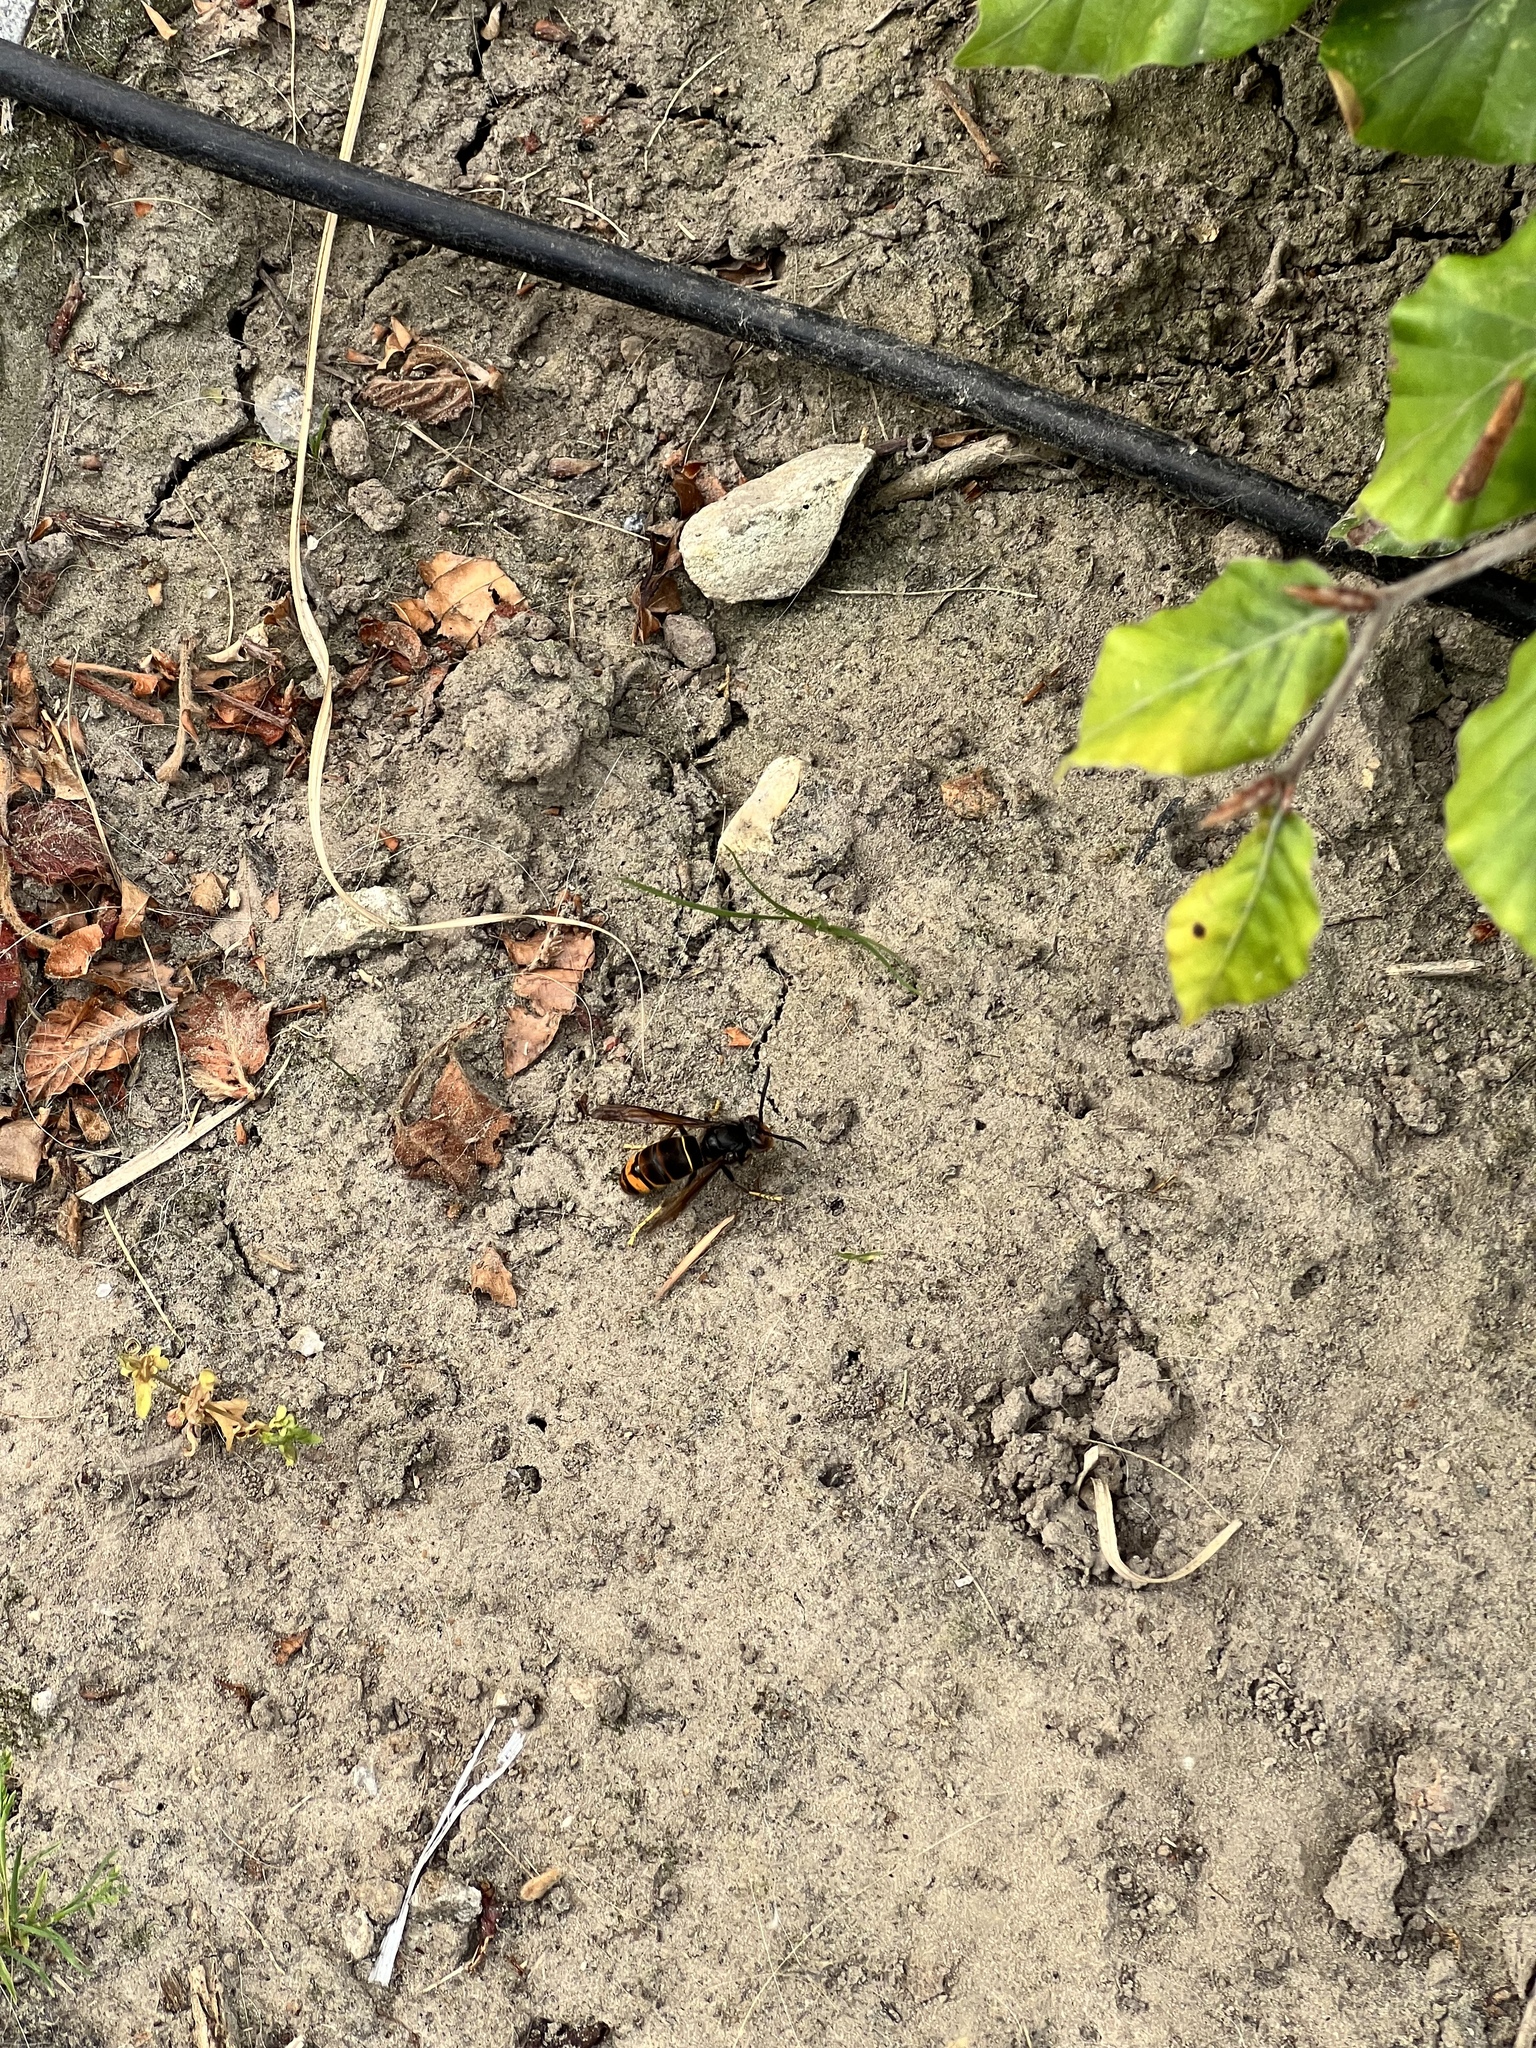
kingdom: Animalia
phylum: Arthropoda
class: Insecta
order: Hymenoptera
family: Vespidae
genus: Vespa
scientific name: Vespa velutina
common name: Asian hornet
